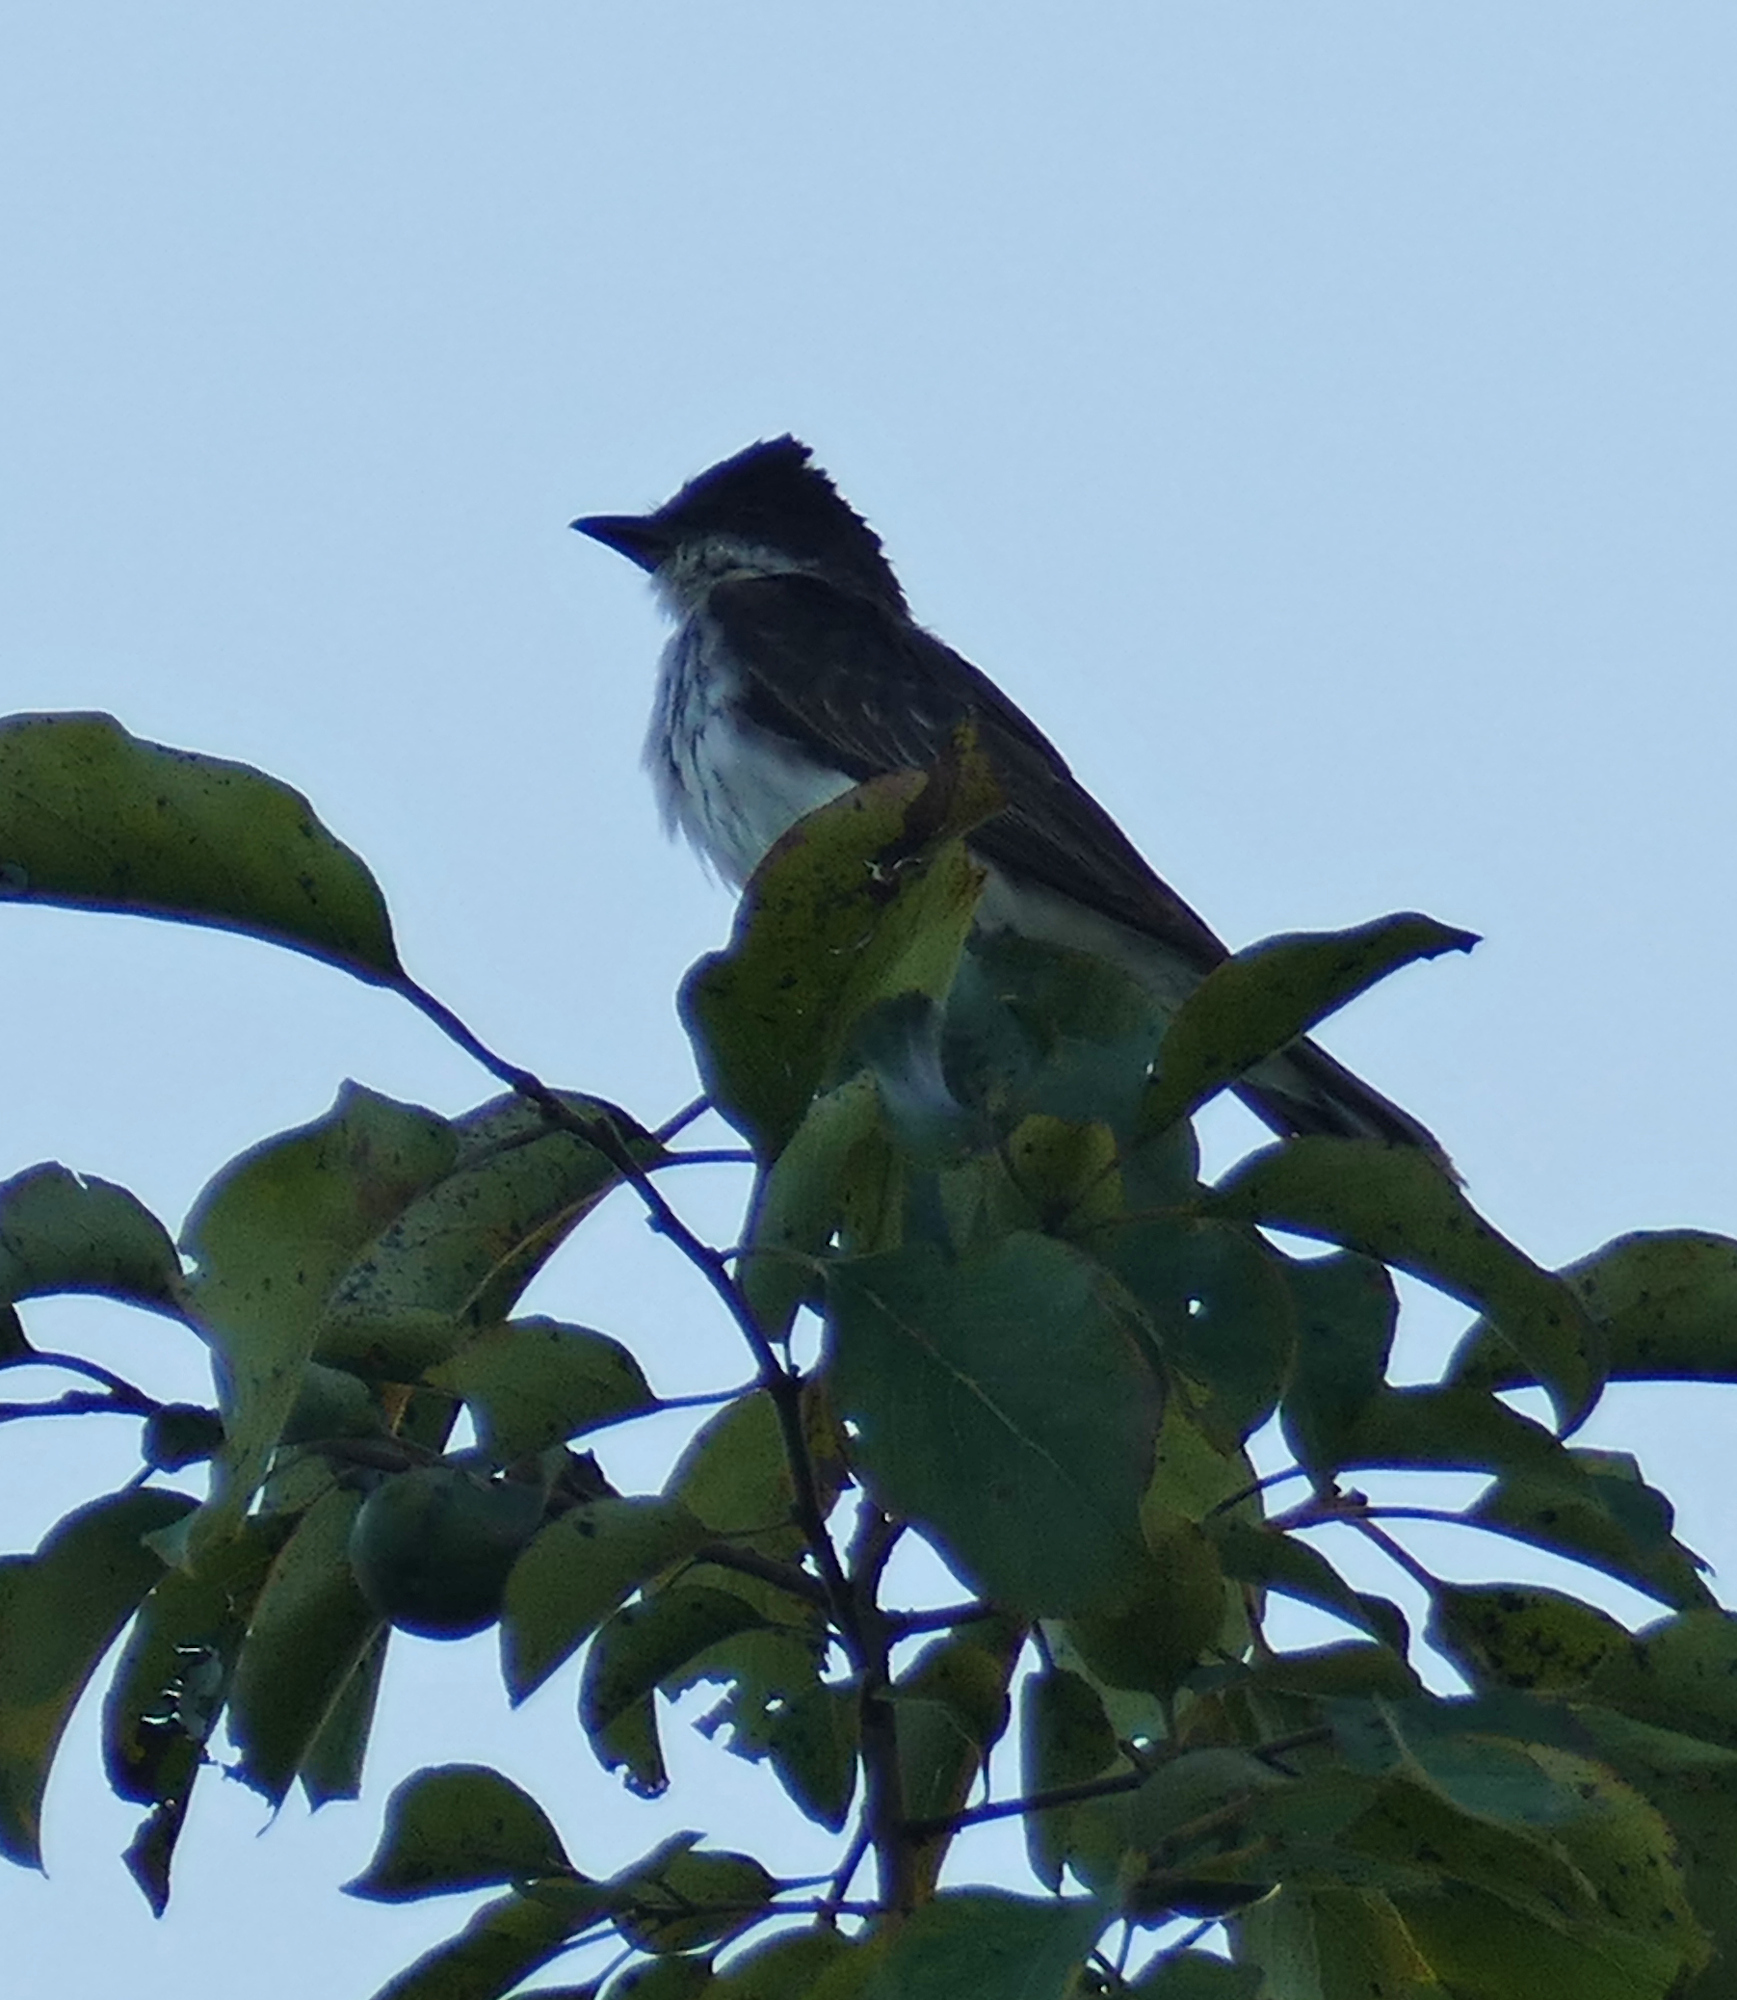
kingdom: Animalia
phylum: Chordata
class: Aves
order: Passeriformes
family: Tyrannidae
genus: Tyrannus
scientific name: Tyrannus tyrannus
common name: Eastern kingbird
